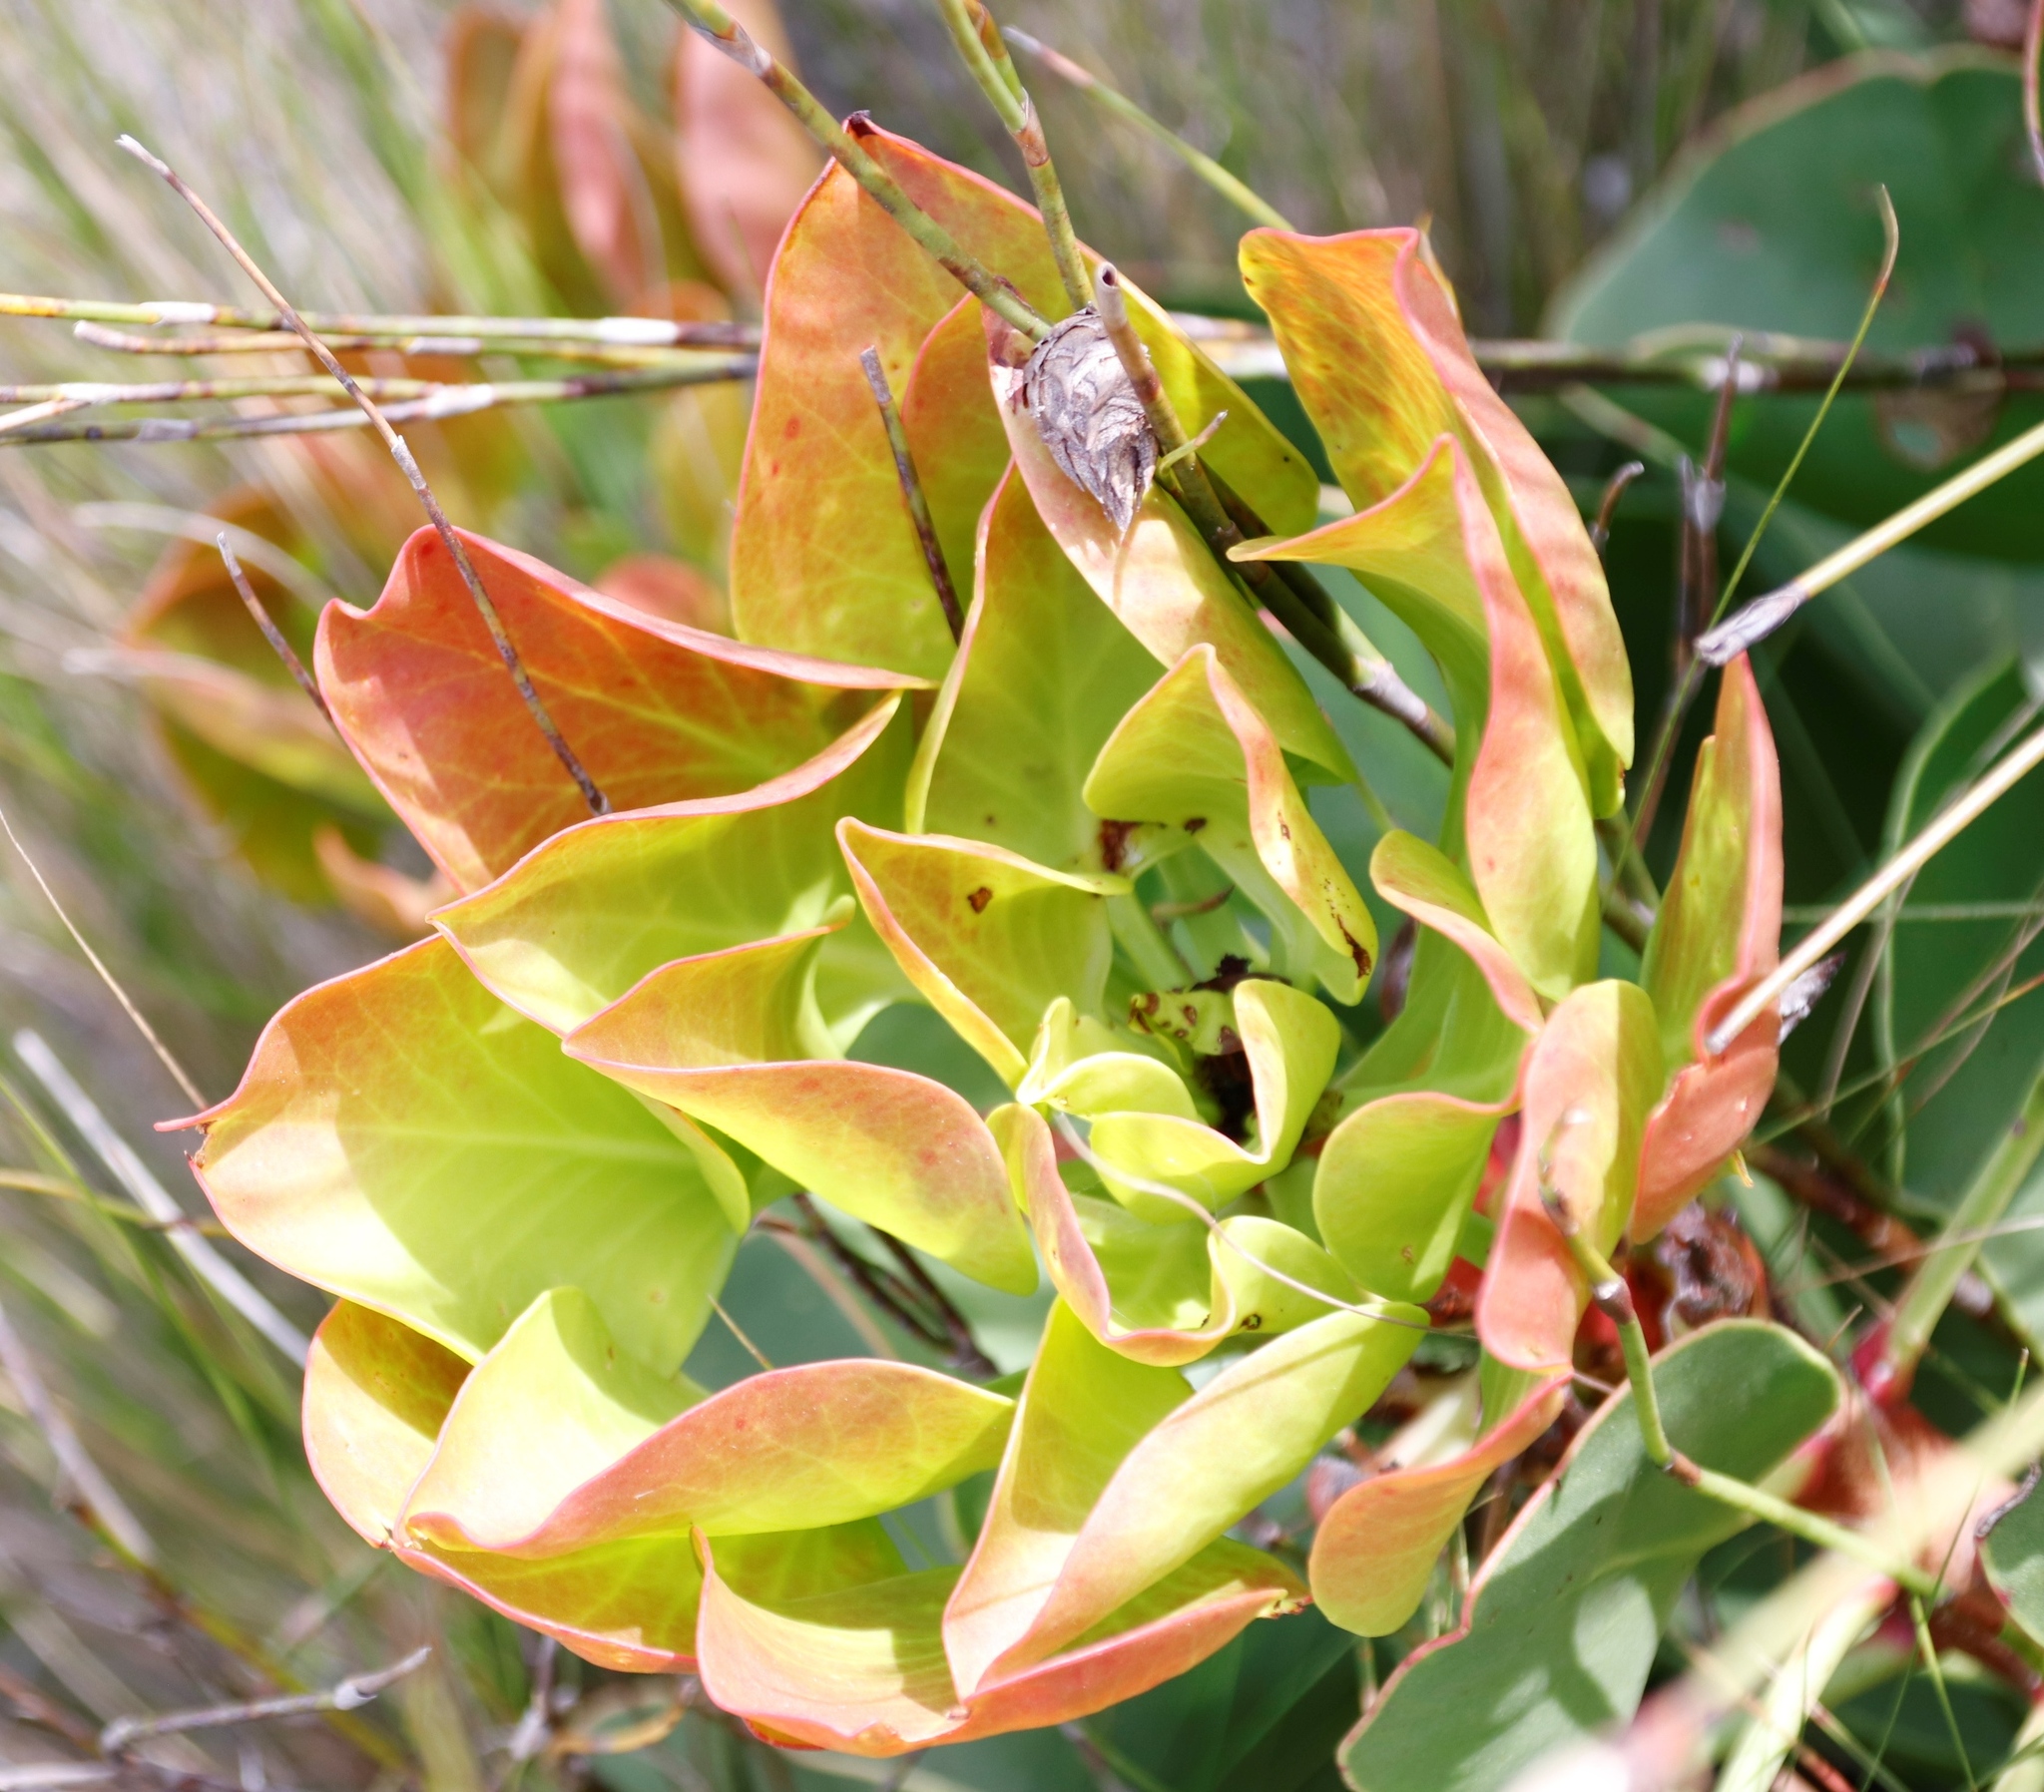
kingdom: Plantae
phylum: Tracheophyta
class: Magnoliopsida
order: Proteales
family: Proteaceae
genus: Protea
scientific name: Protea cynaroides
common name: King protea
